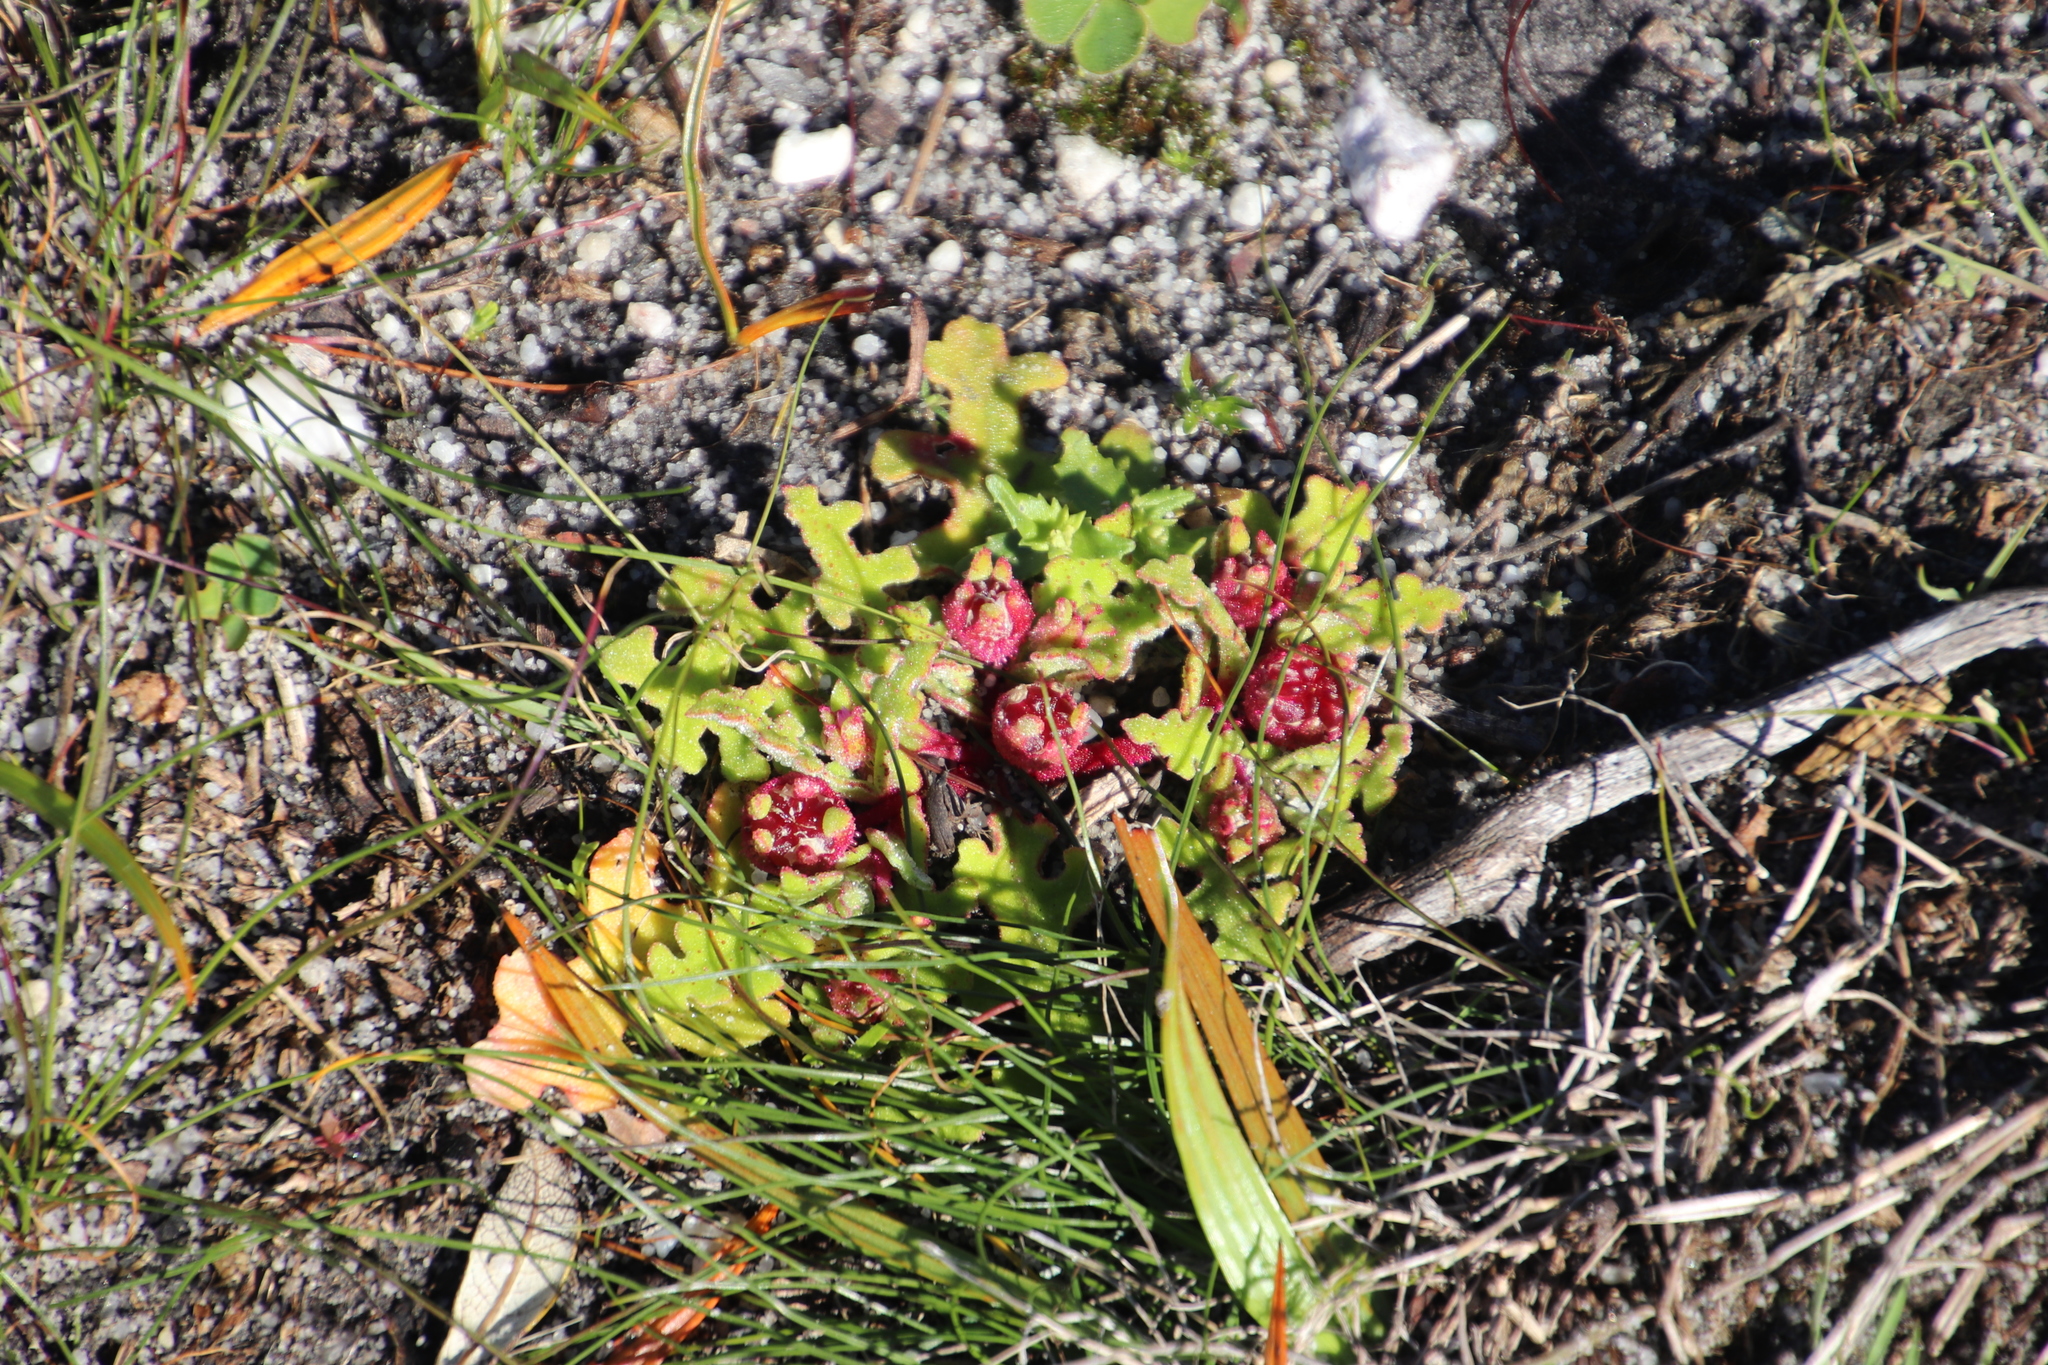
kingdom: Plantae
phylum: Tracheophyta
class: Magnoliopsida
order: Caryophyllales
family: Aizoaceae
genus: Cleretum
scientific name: Cleretum herrei
